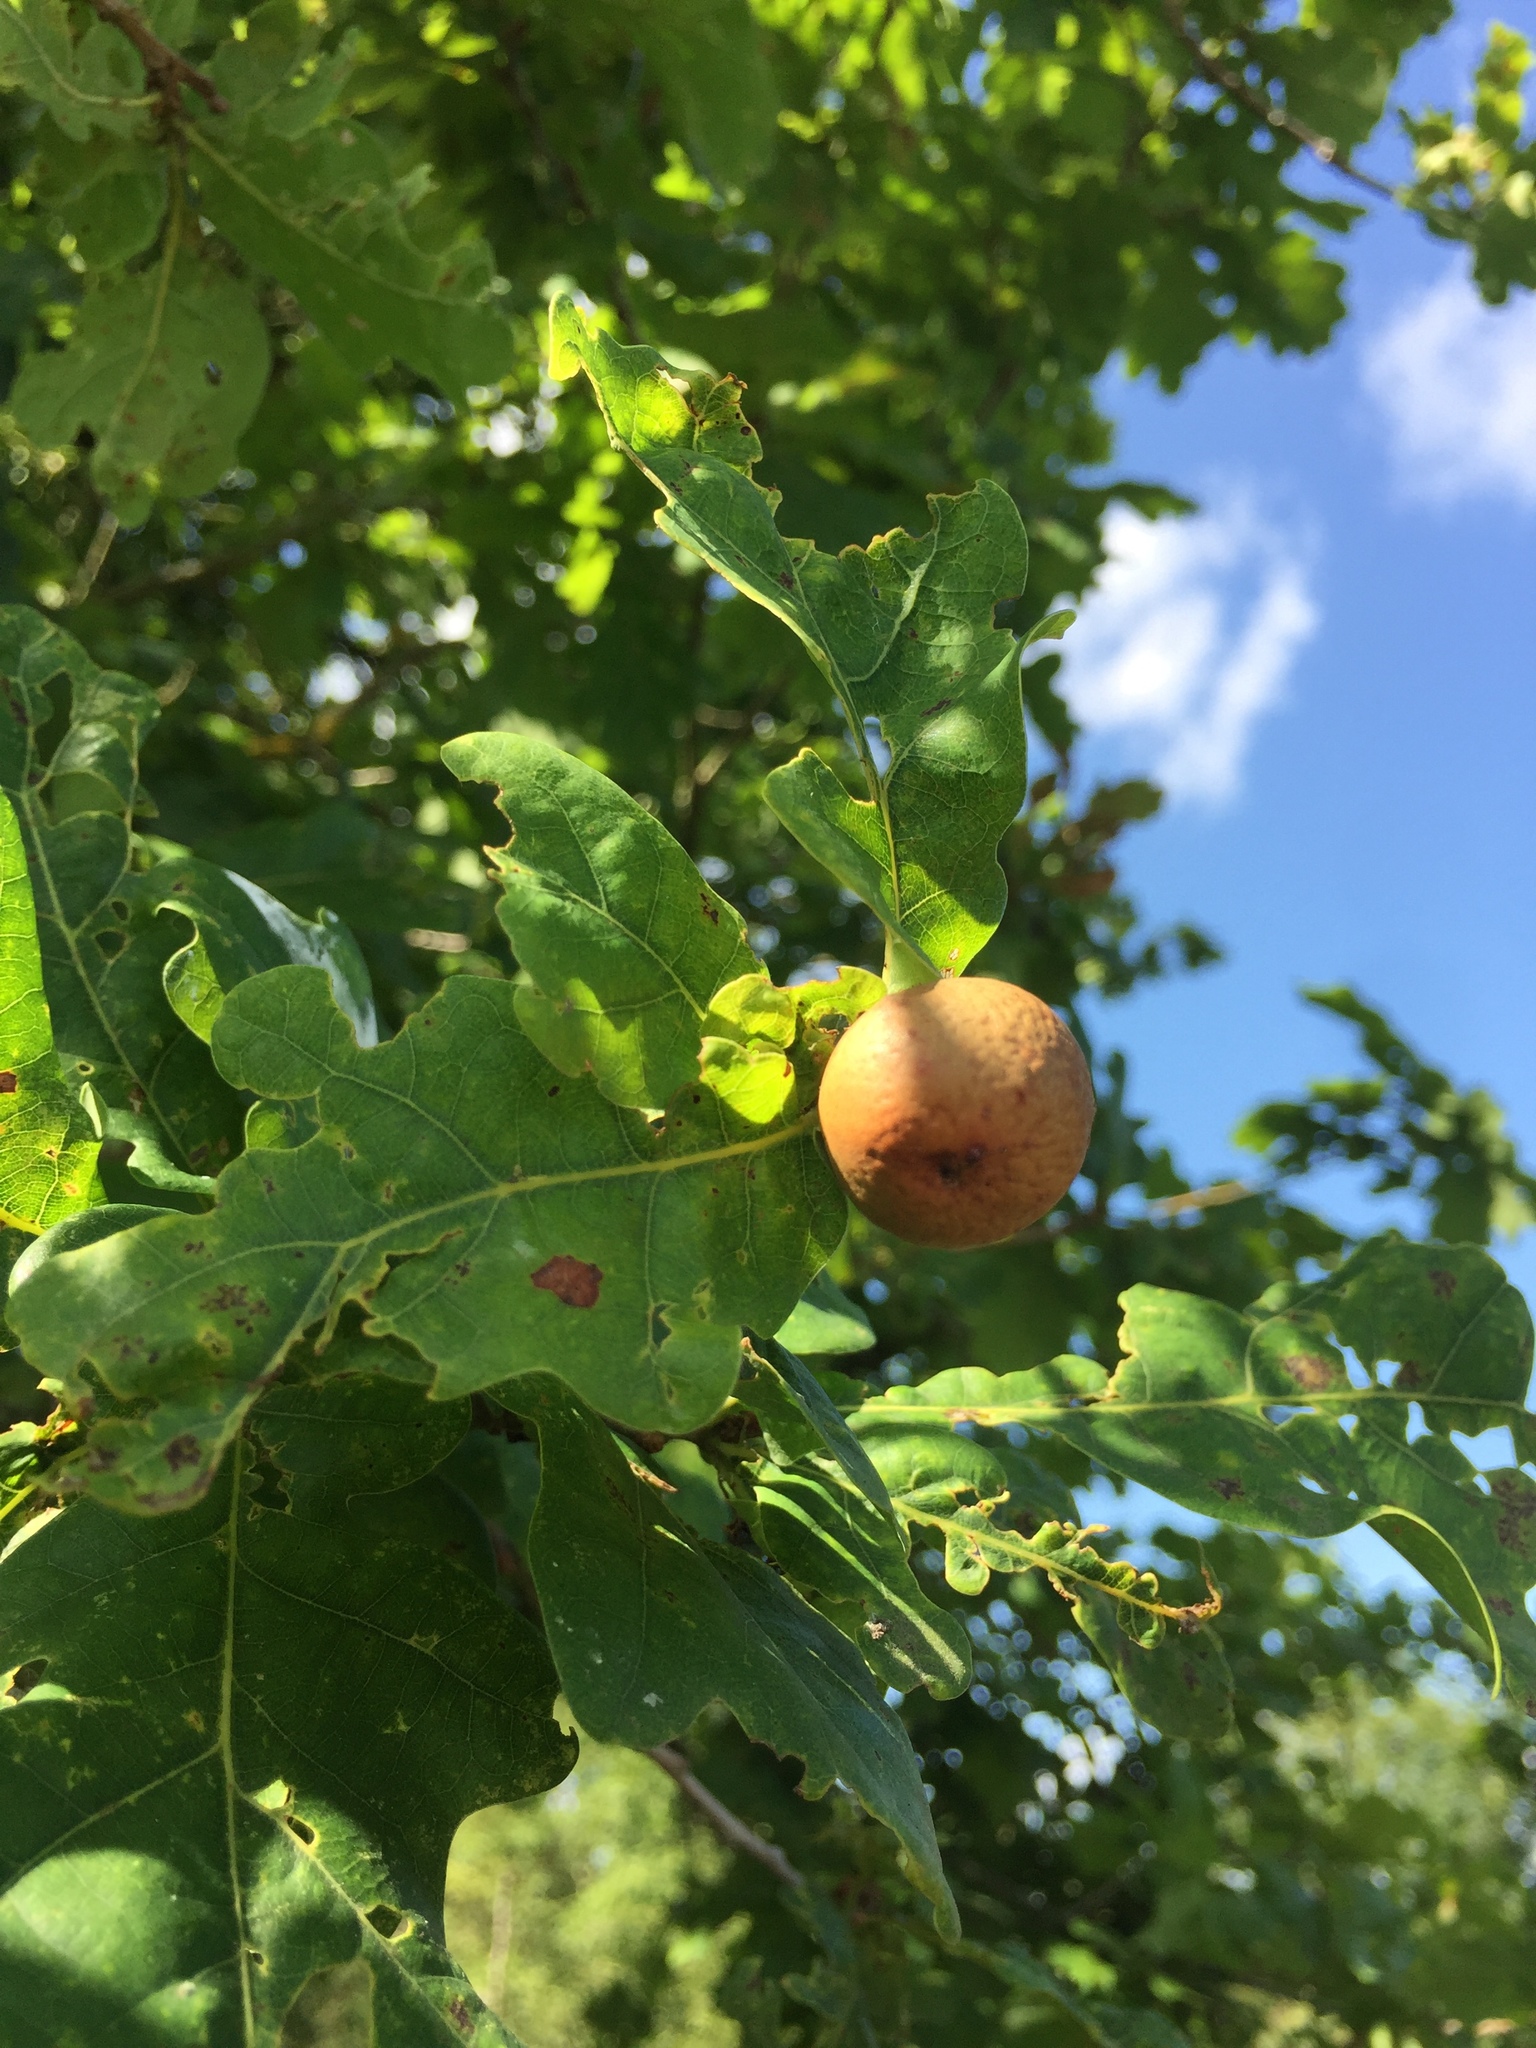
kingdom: Animalia
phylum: Arthropoda
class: Insecta
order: Hymenoptera
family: Cynipidae
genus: Andricus
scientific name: Andricus kollari
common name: Marble gall
